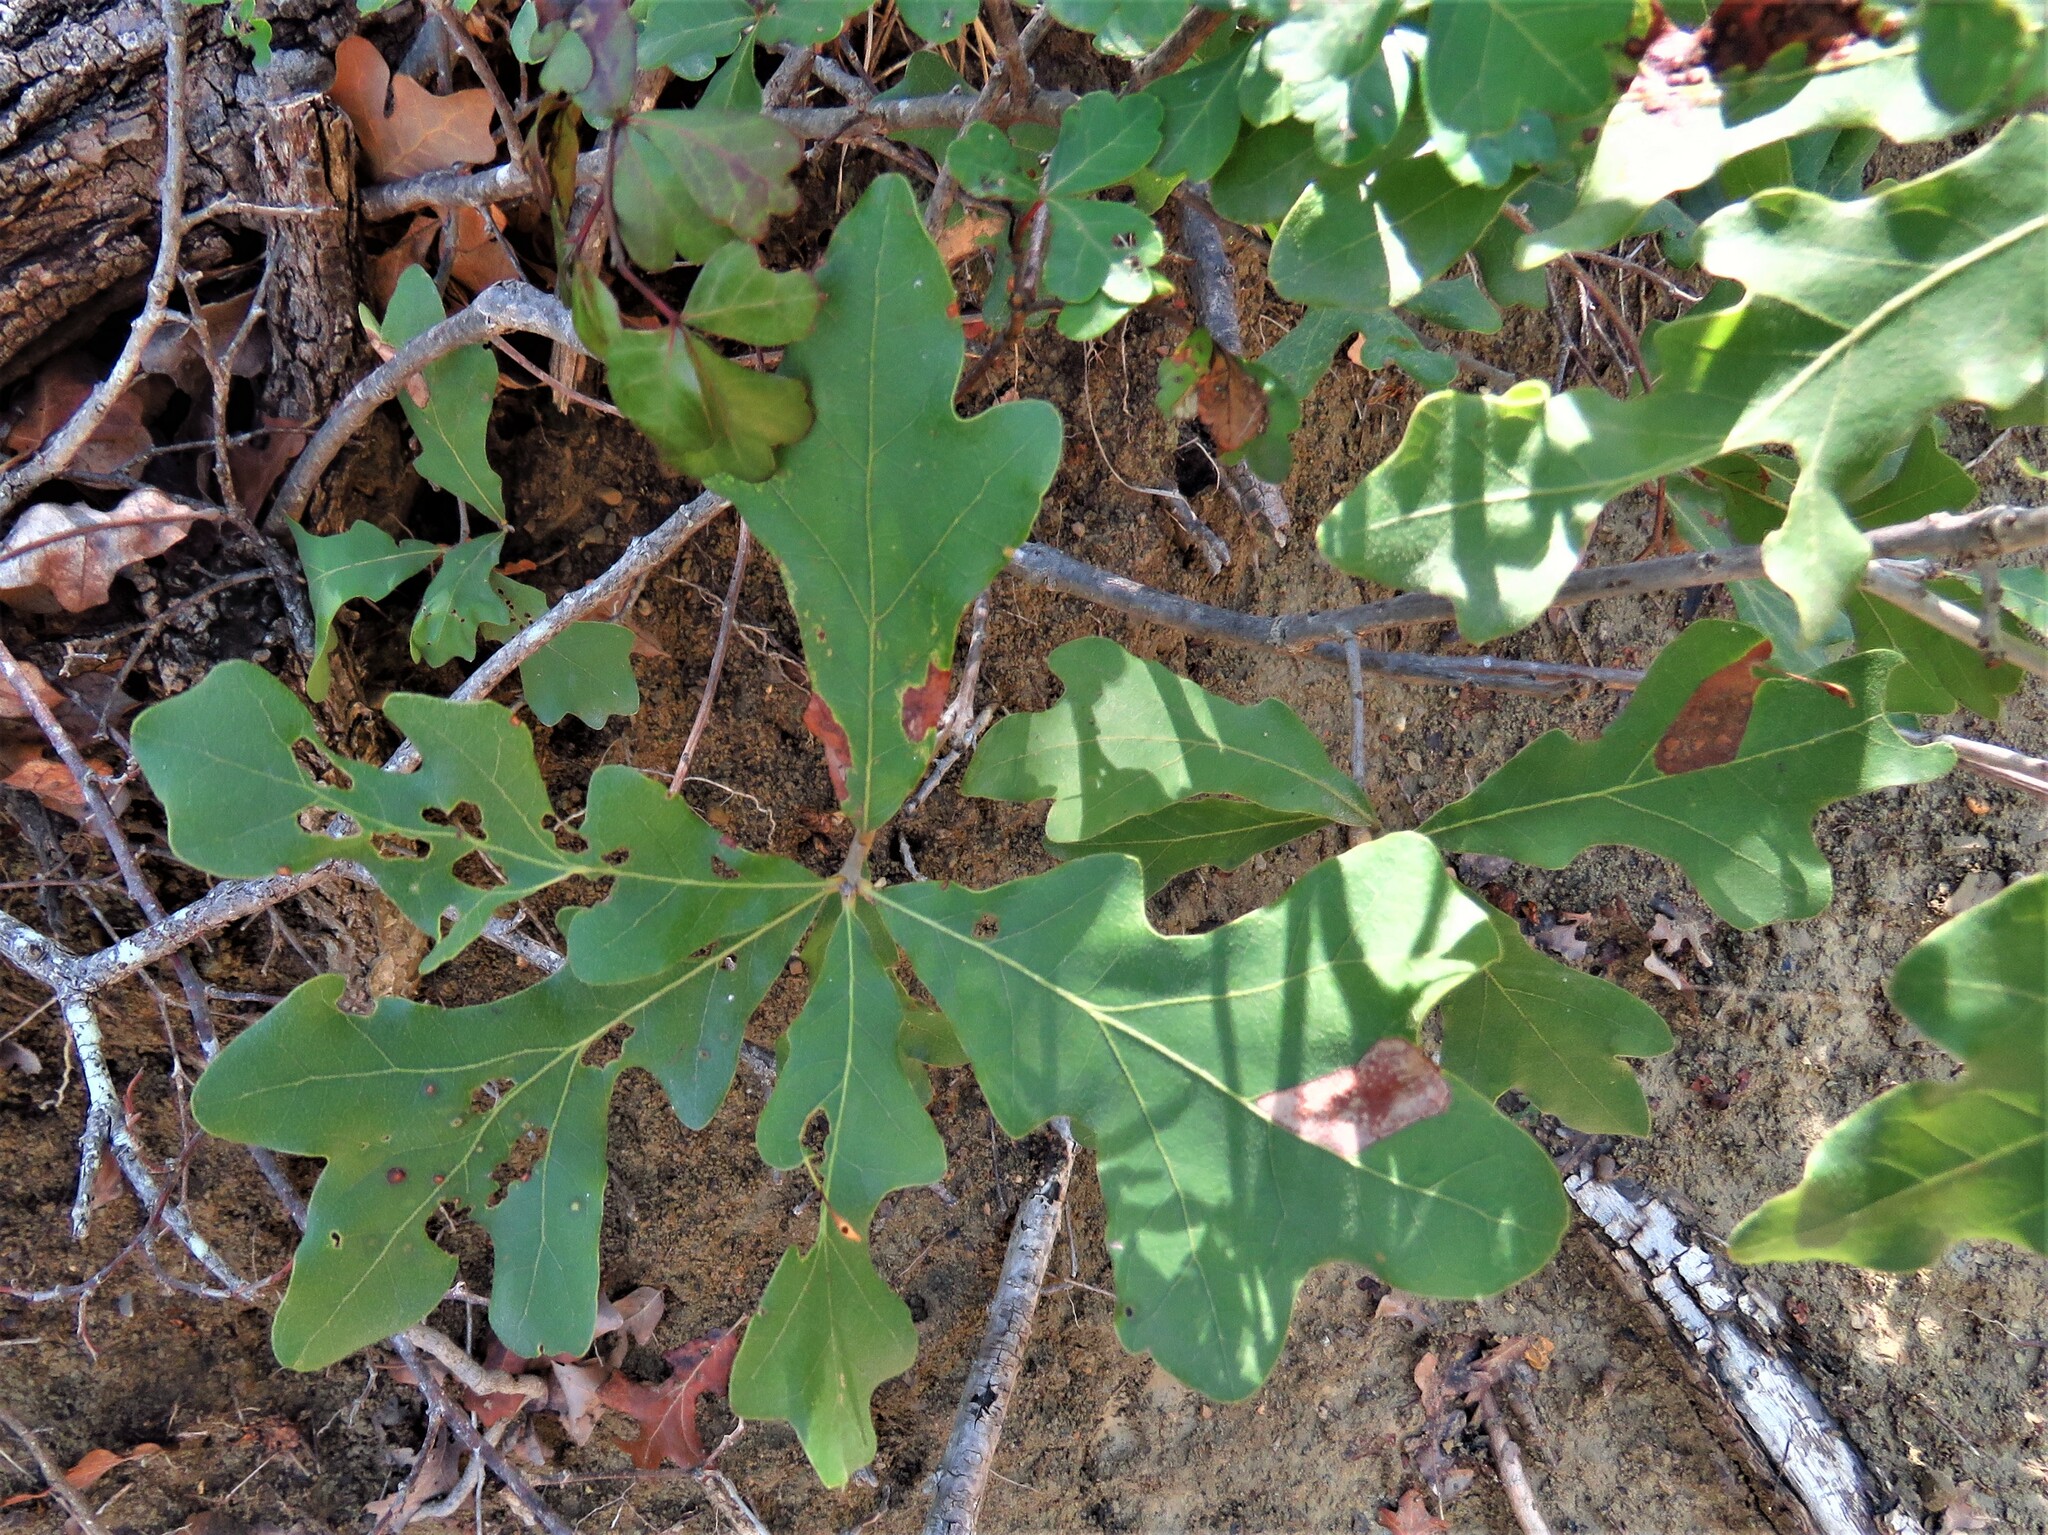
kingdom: Plantae
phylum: Tracheophyta
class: Magnoliopsida
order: Fagales
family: Fagaceae
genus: Quercus
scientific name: Quercus stellata
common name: Post oak
